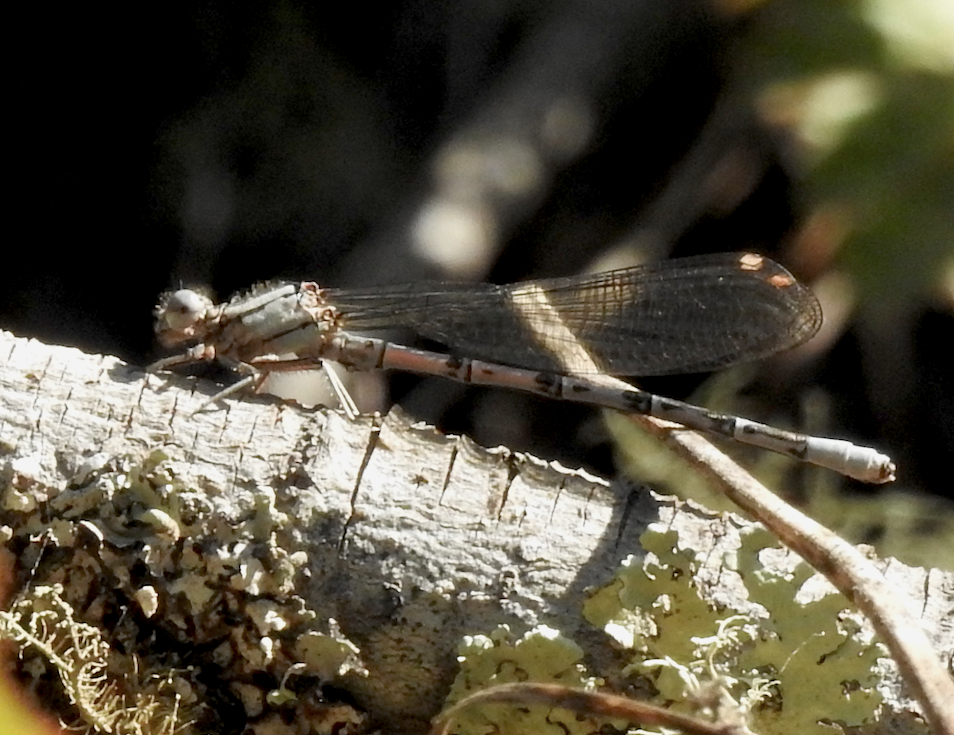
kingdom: Animalia
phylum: Arthropoda
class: Insecta
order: Odonata
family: Coenagrionidae
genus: Argia
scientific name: Argia vivida
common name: Vivid dancer
